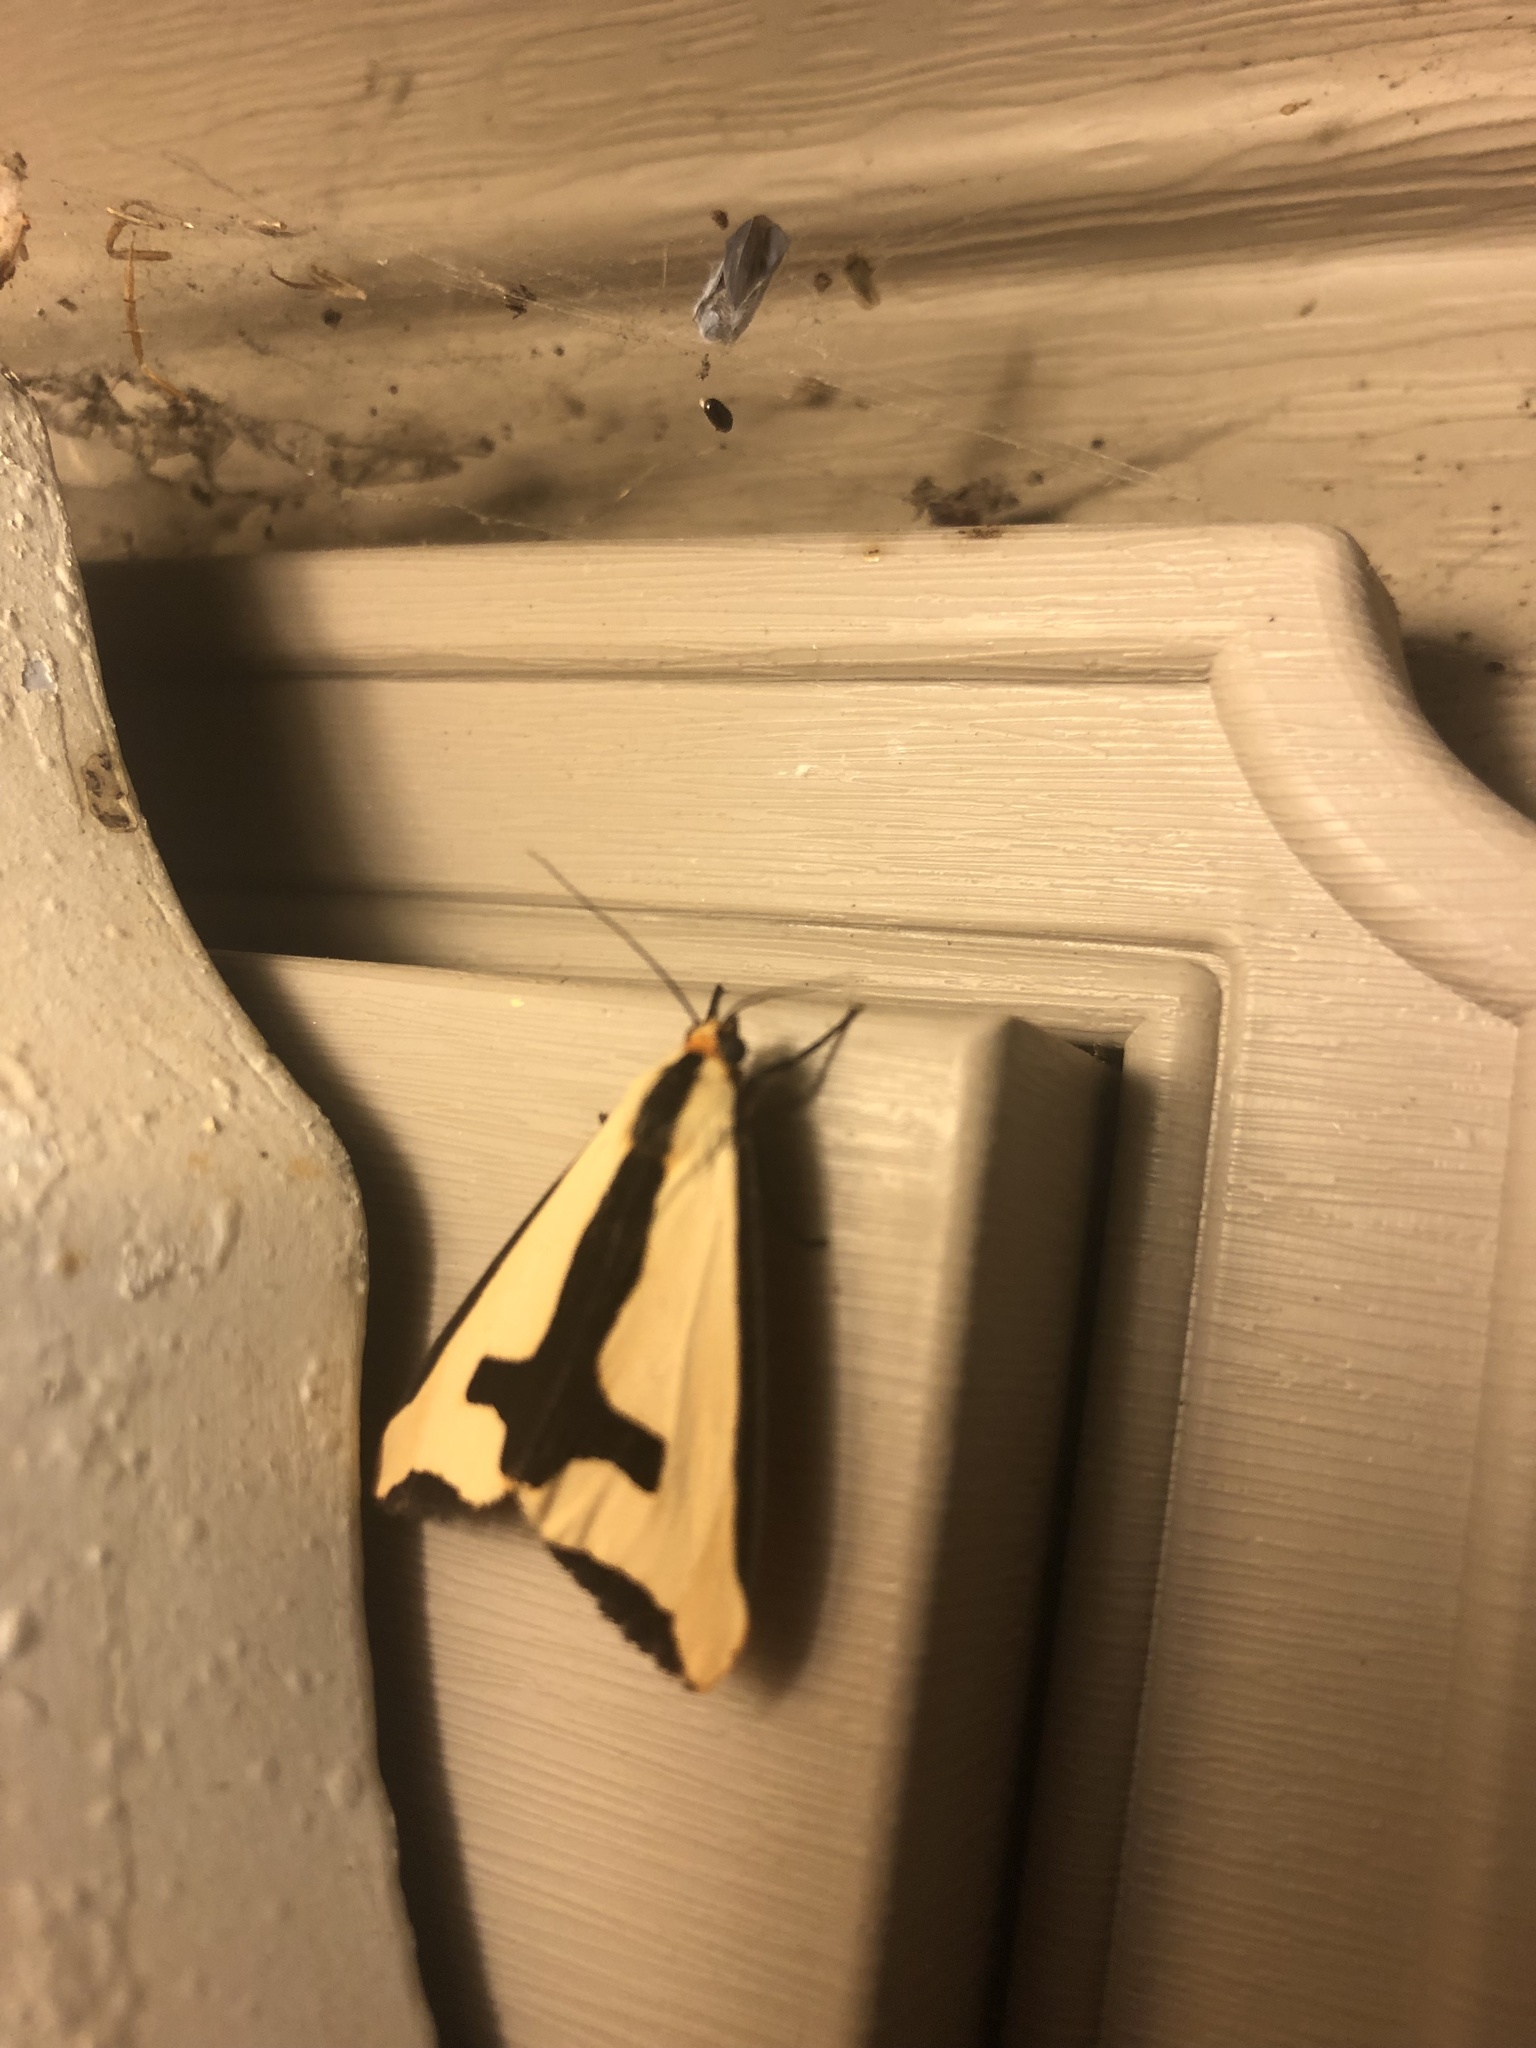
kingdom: Animalia
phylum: Arthropoda
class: Insecta
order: Lepidoptera
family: Erebidae
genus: Haploa
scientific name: Haploa clymene
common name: Clymene moth
